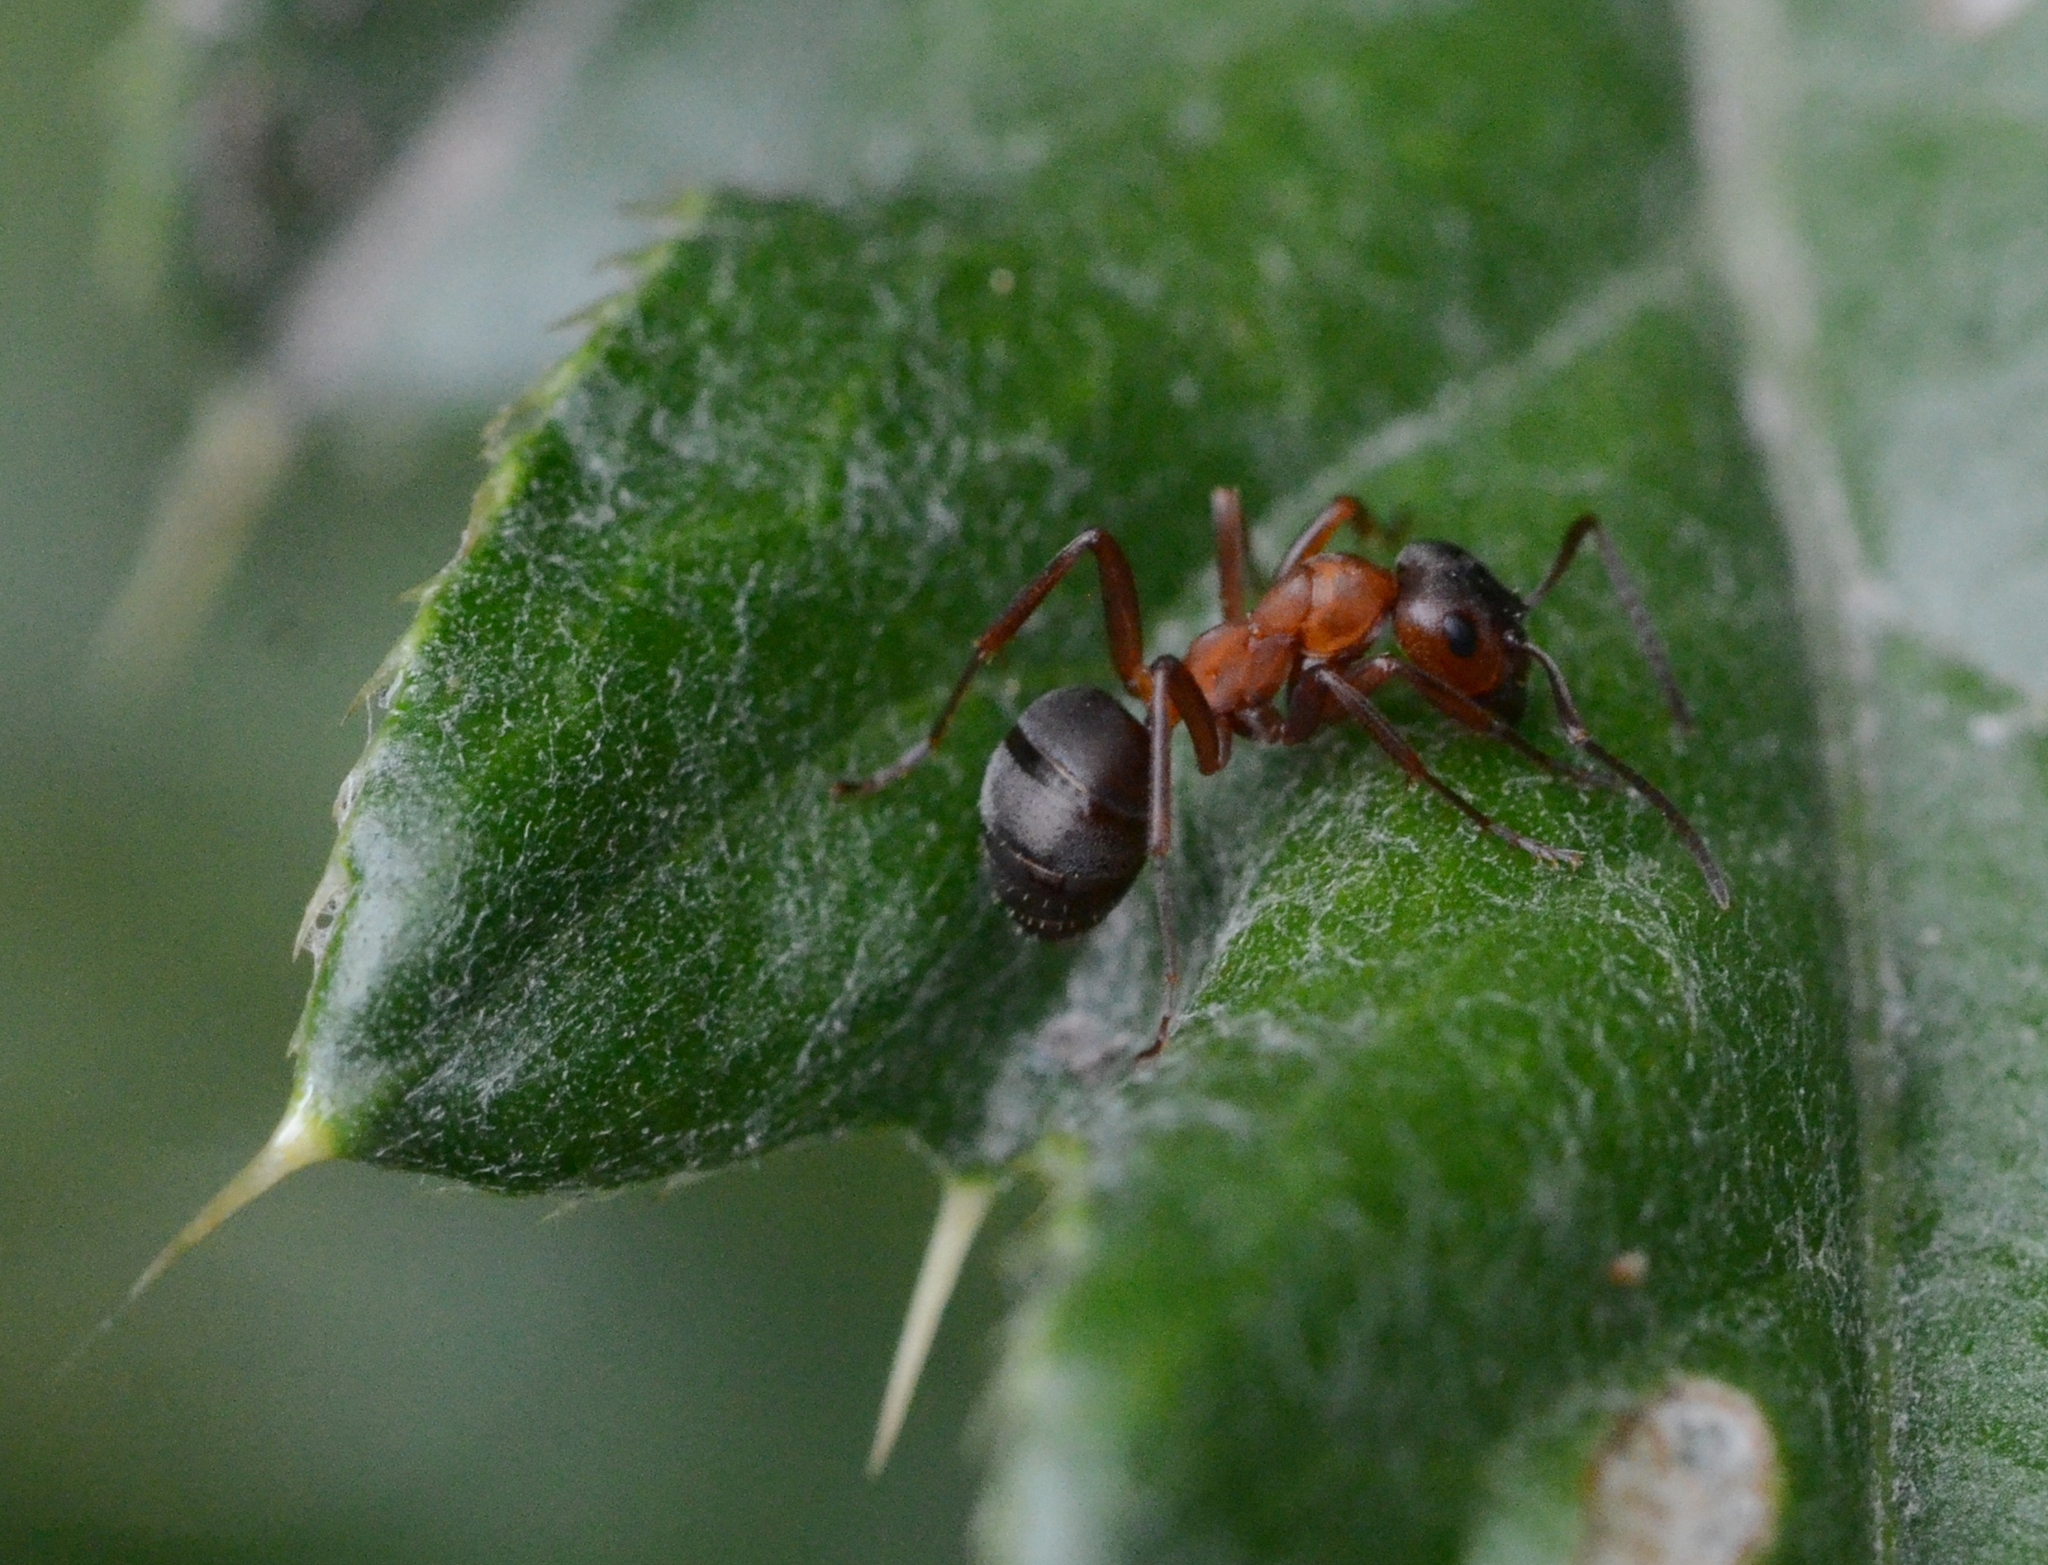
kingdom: Animalia
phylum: Arthropoda
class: Insecta
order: Hymenoptera
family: Formicidae
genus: Formica
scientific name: Formica sanguinea
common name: Blood-red ant
